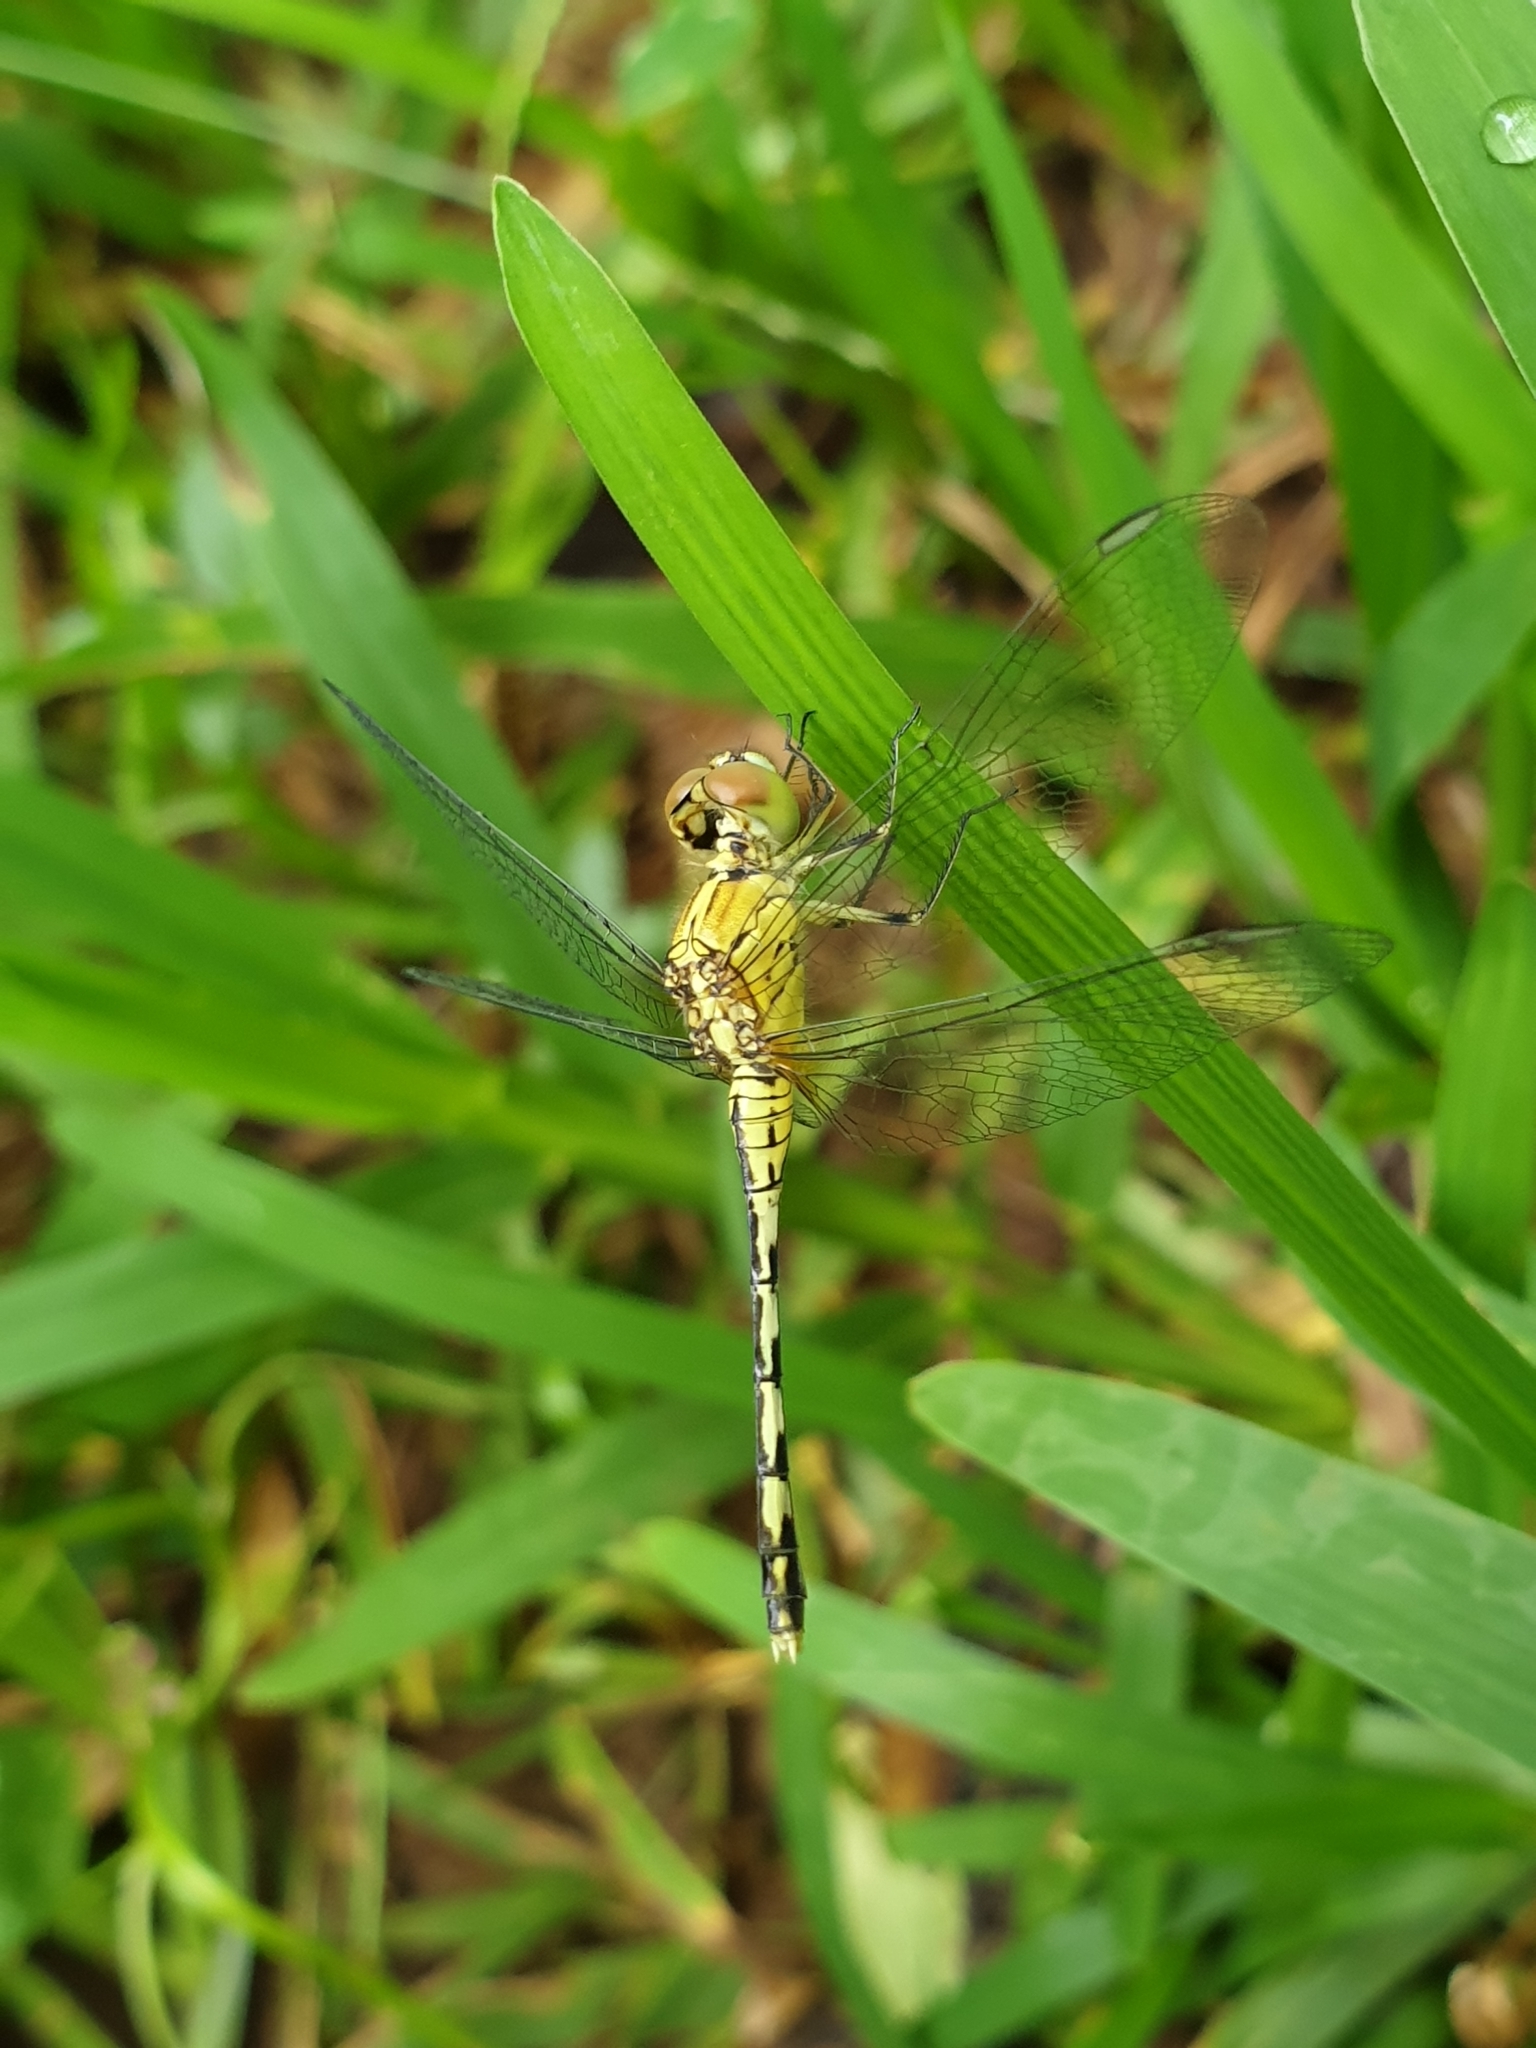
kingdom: Animalia
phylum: Arthropoda
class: Insecta
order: Odonata
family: Libellulidae
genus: Diplacodes
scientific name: Diplacodes trivialis
